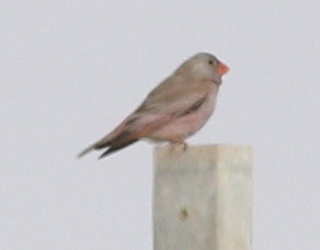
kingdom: Animalia
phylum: Chordata
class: Aves
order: Passeriformes
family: Fringillidae
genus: Bucanetes
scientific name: Bucanetes githagineus
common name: Trumpeter finch
